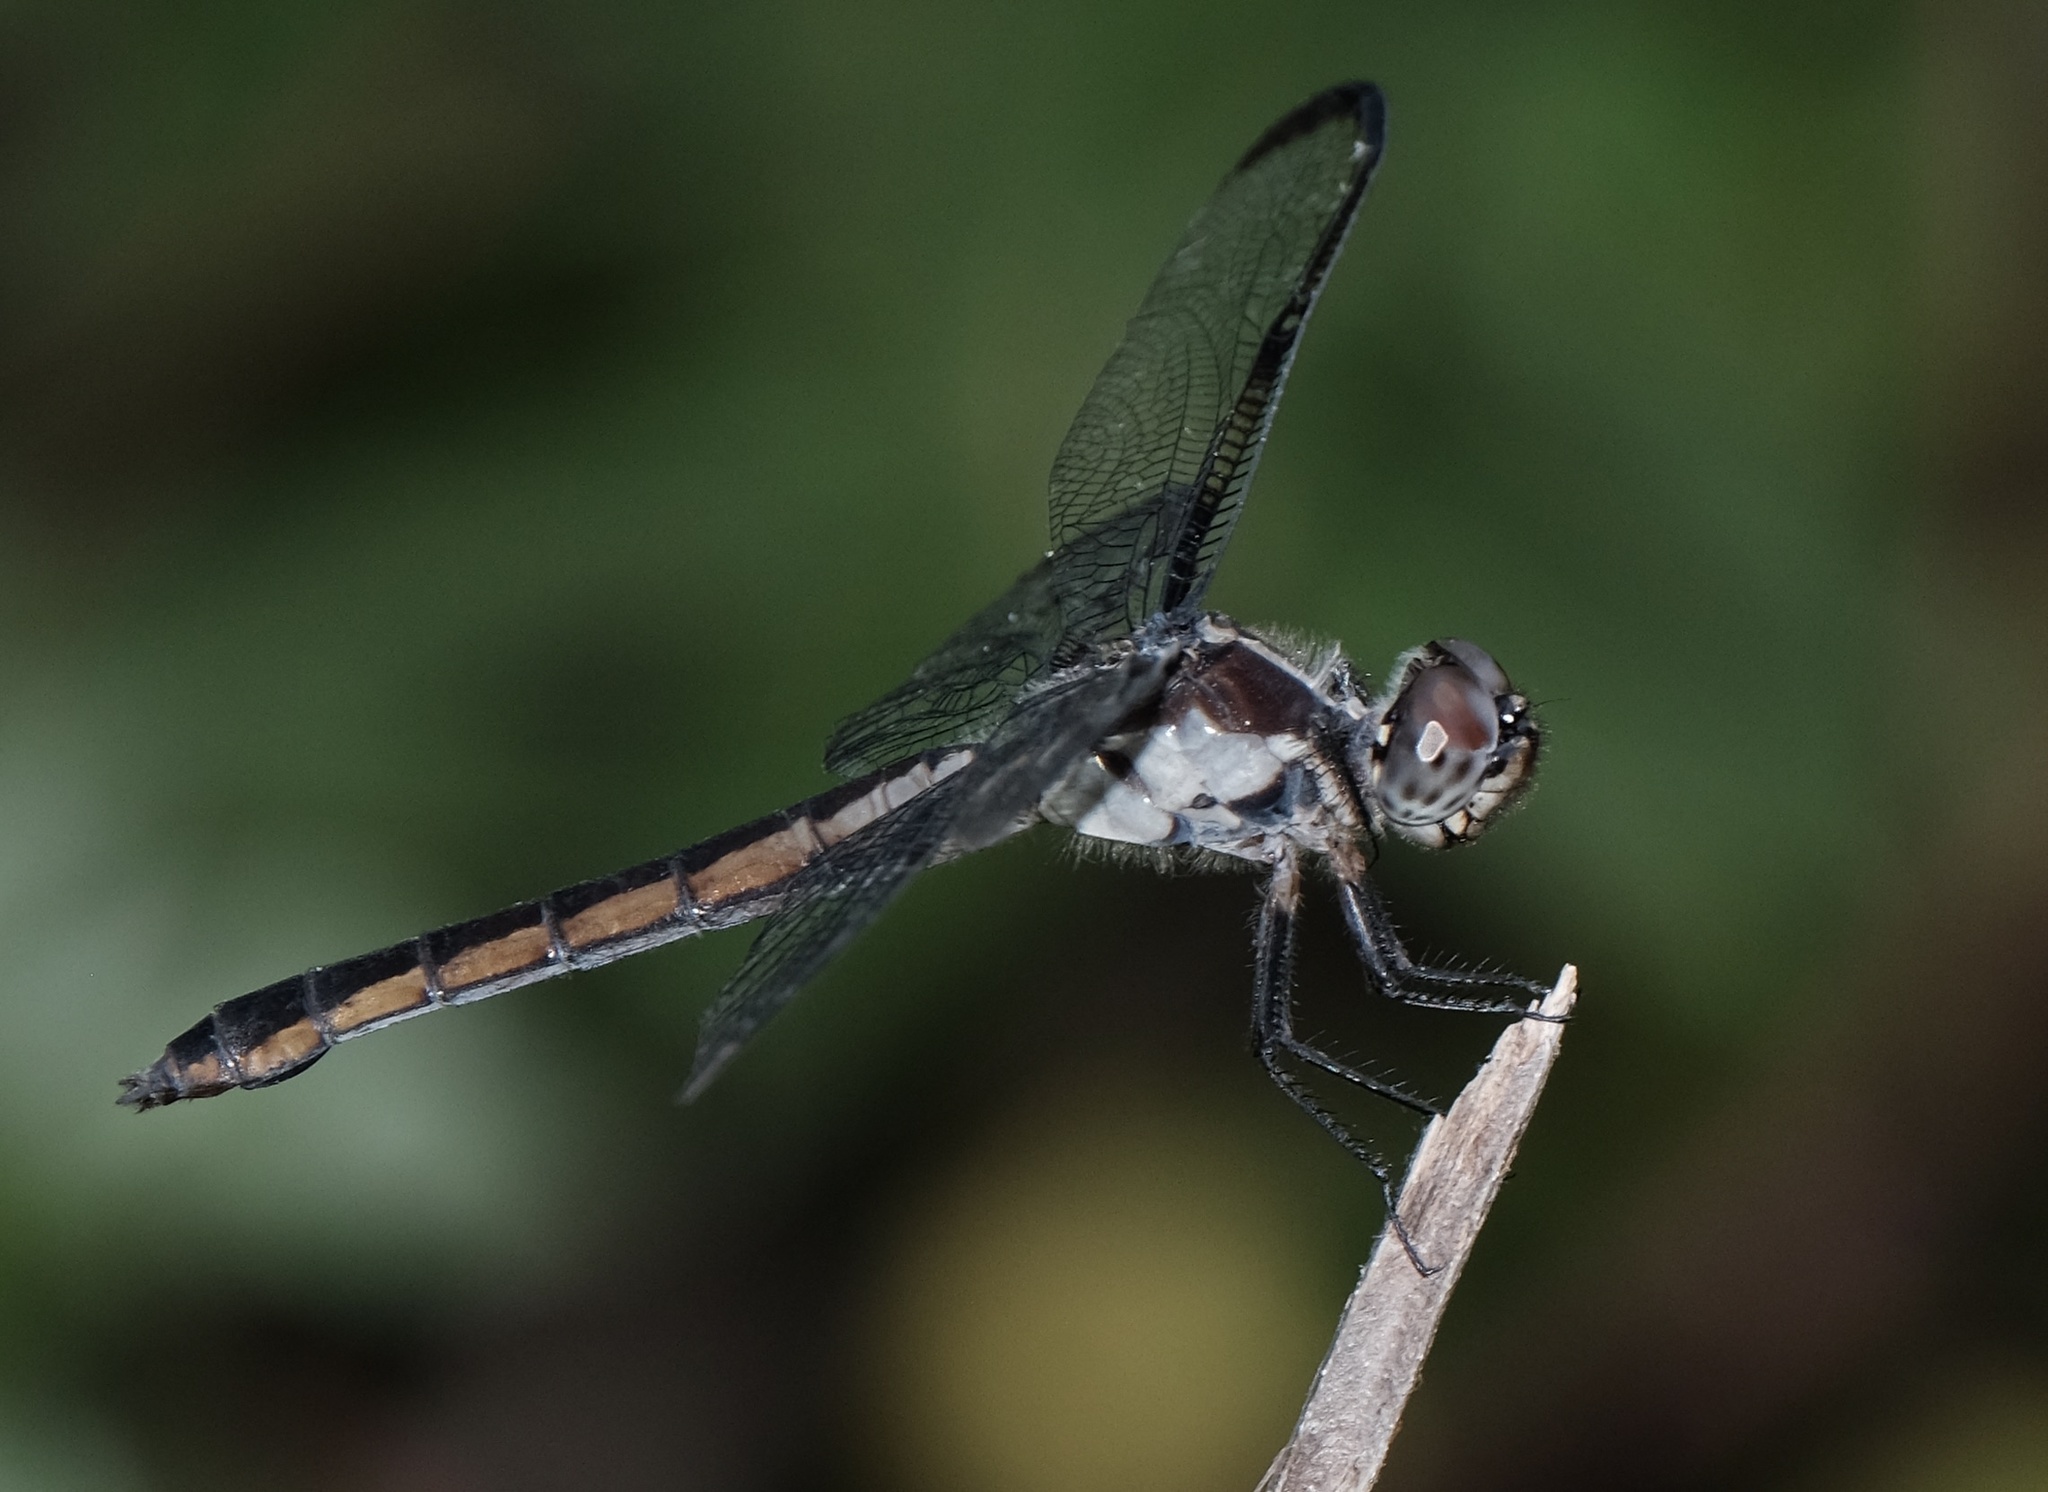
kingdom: Animalia
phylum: Arthropoda
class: Insecta
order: Odonata
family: Libellulidae
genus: Libellula
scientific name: Libellula incesta
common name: Slaty skimmer
